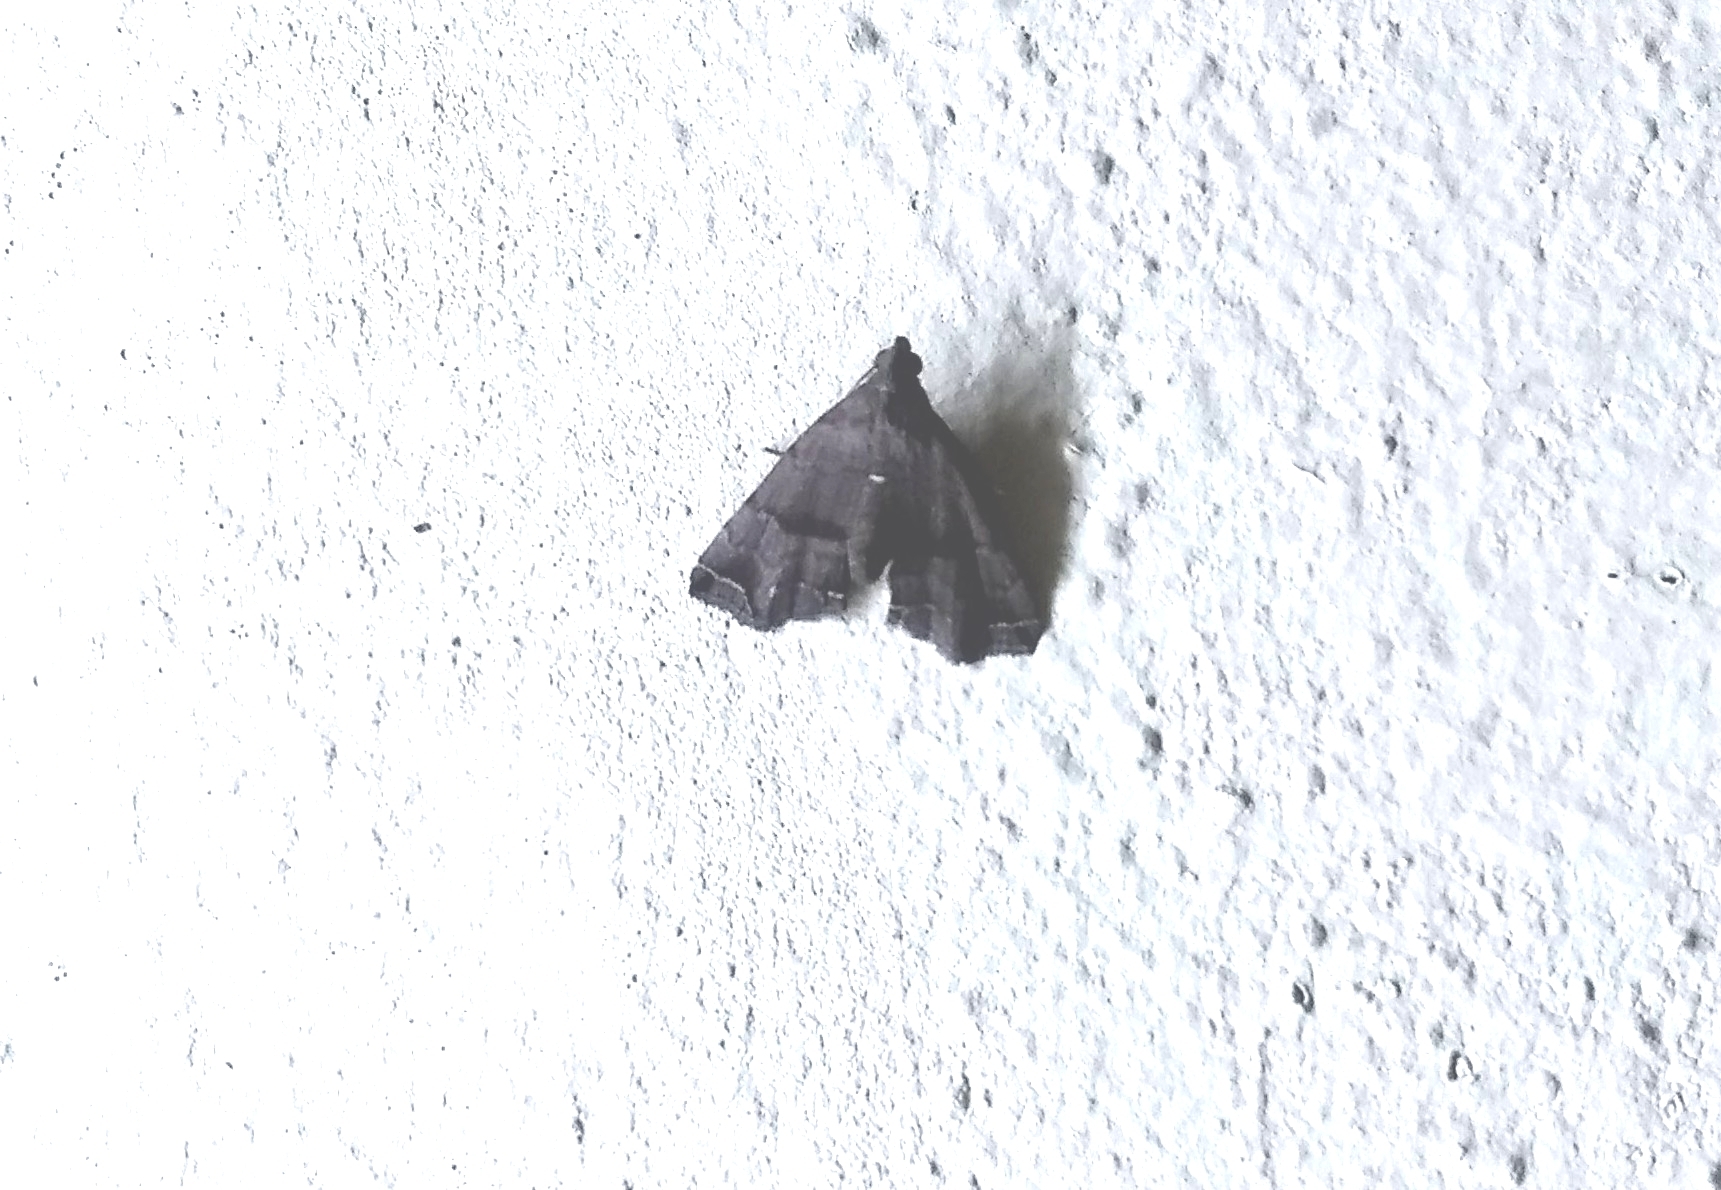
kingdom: Animalia
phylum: Arthropoda
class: Insecta
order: Lepidoptera
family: Erebidae
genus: Polypogon
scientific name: Polypogon biasalis
